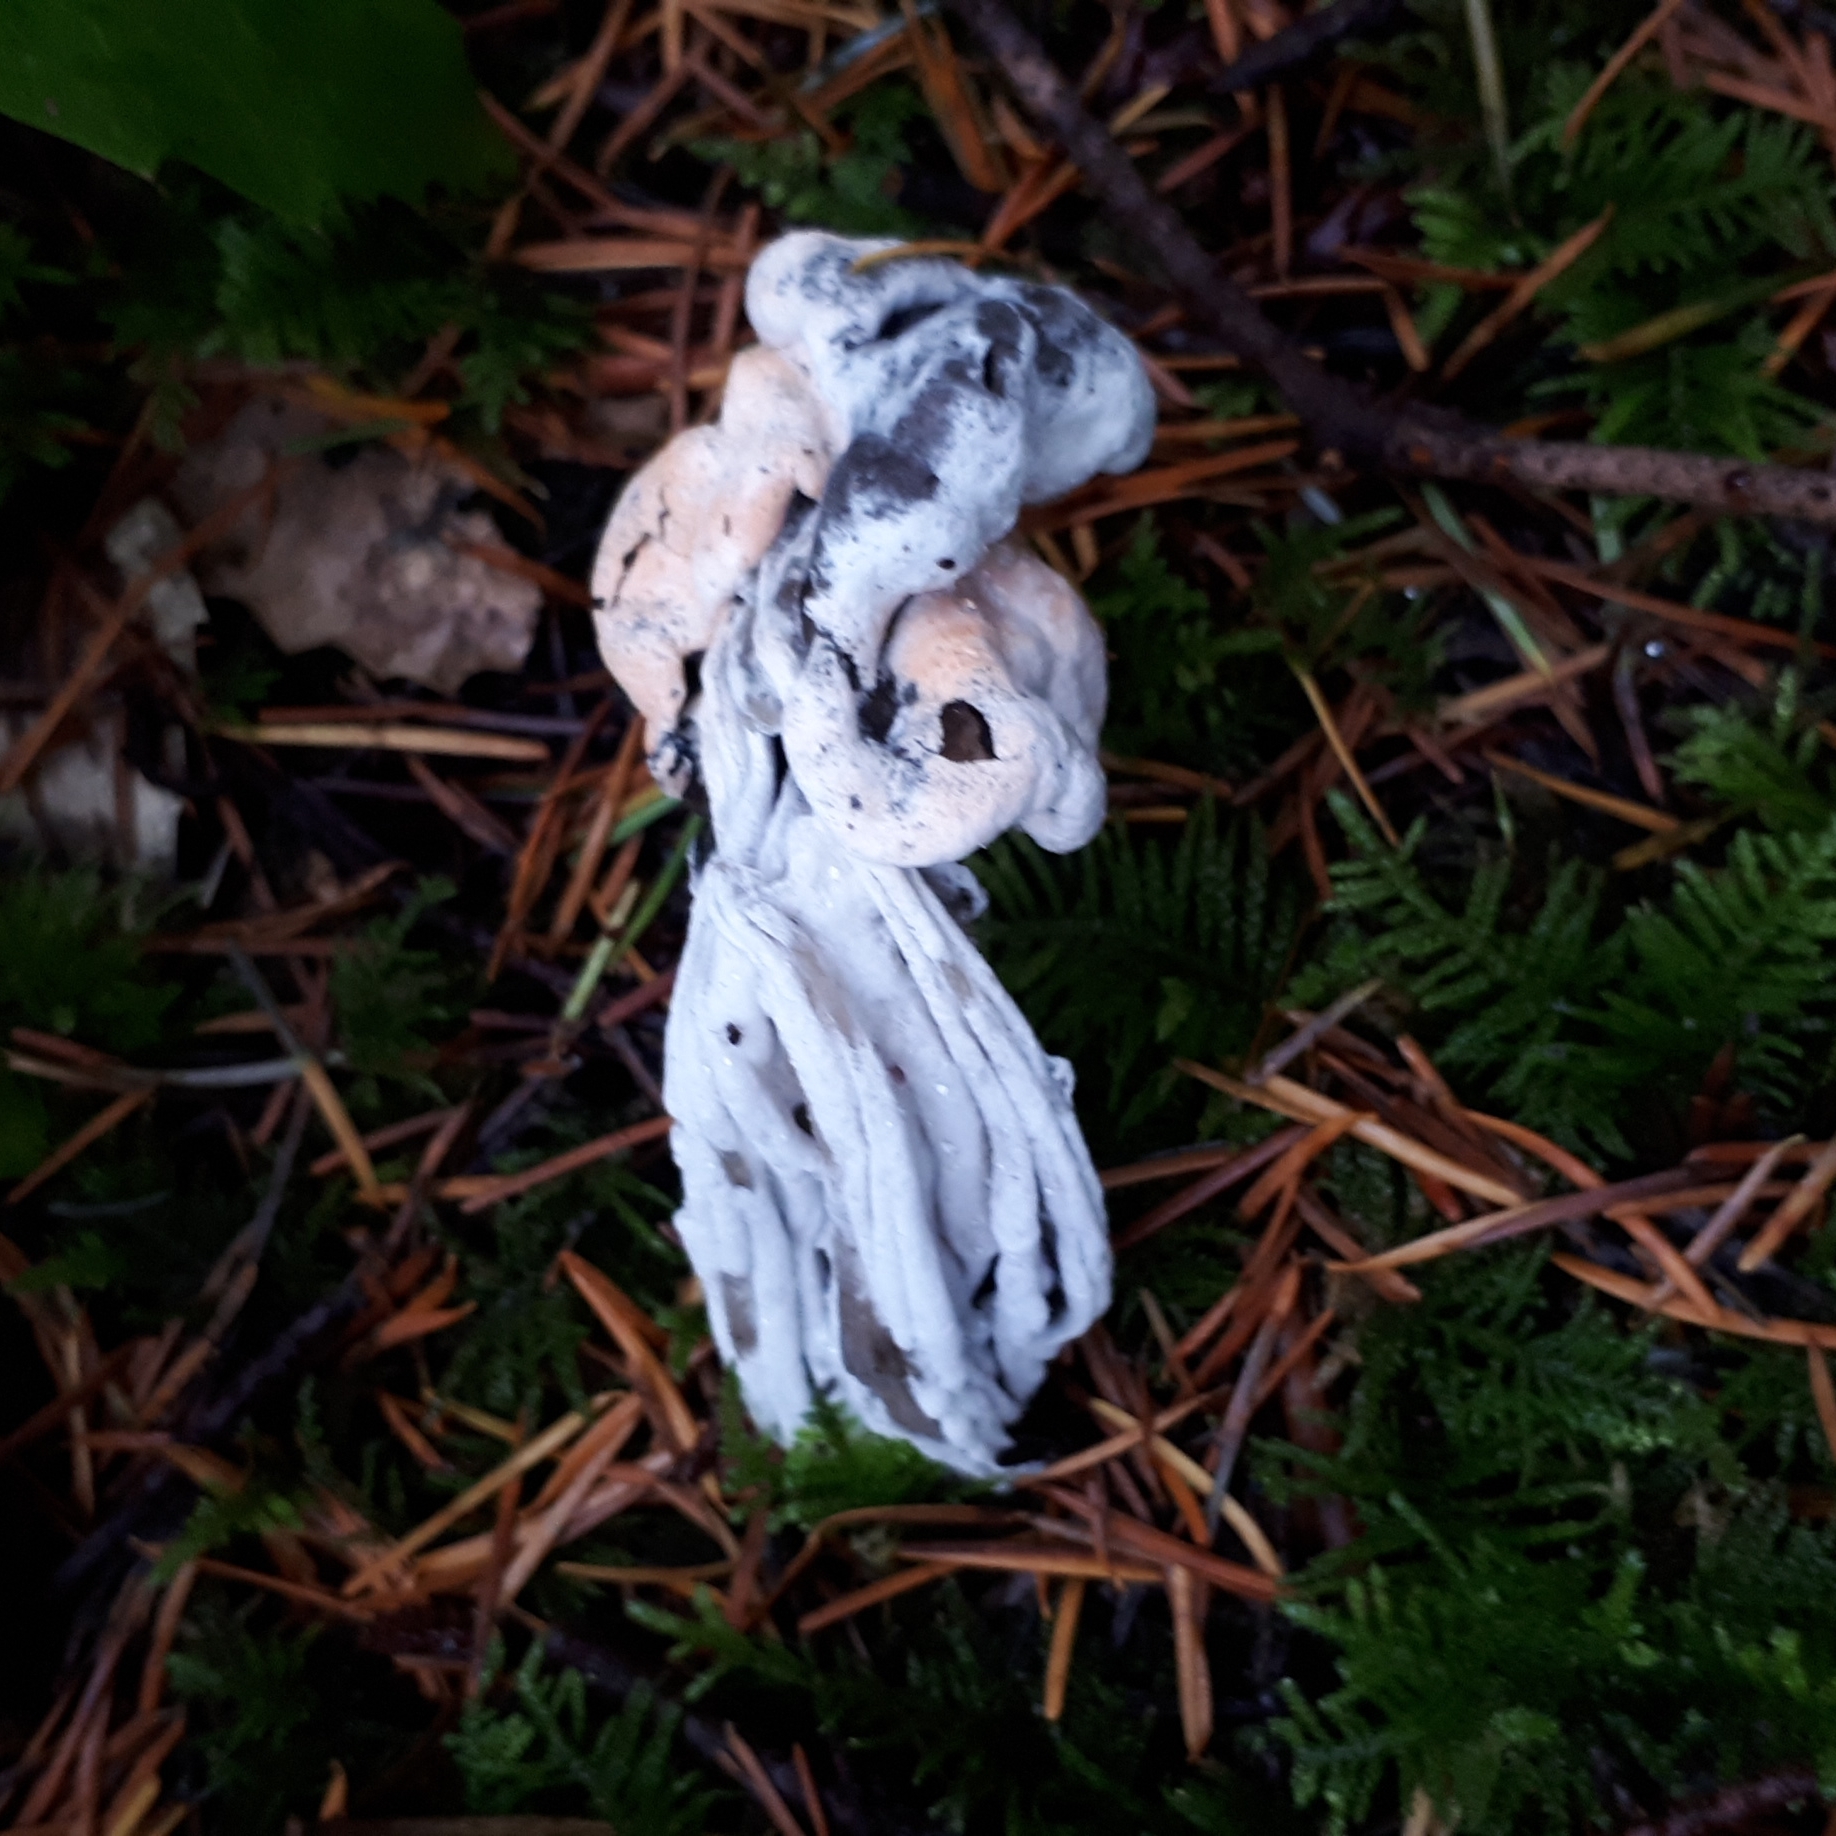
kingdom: Fungi
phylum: Ascomycota
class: Pezizomycetes
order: Pezizales
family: Helvellaceae
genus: Helvella
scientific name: Helvella vespertina
